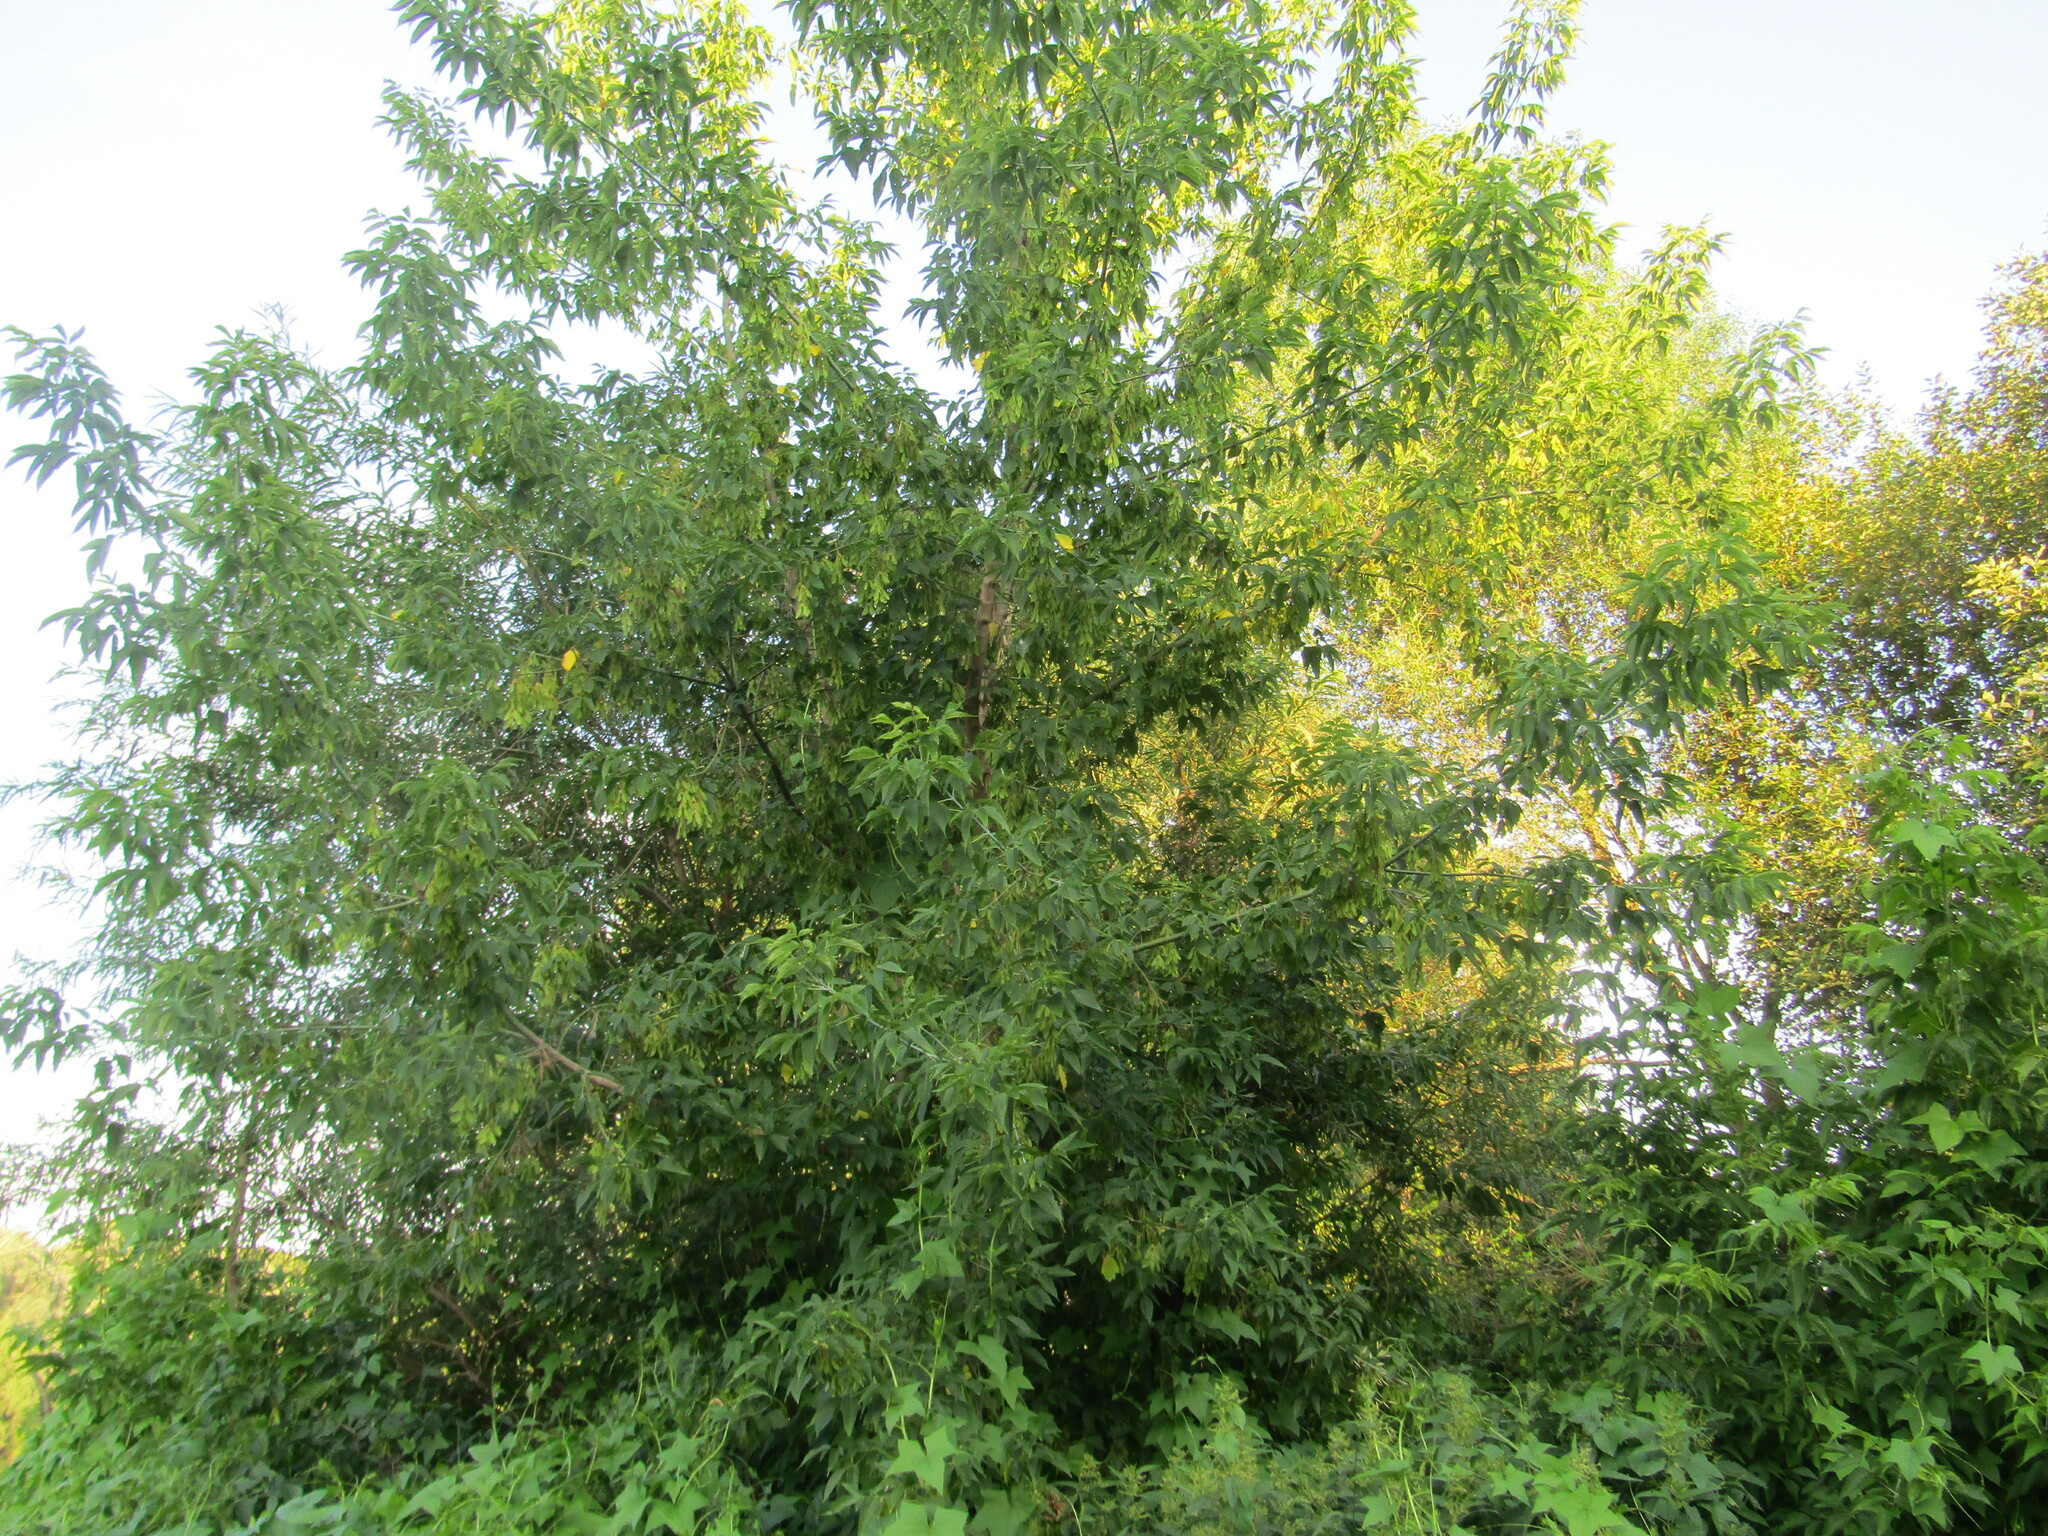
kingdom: Plantae
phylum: Tracheophyta
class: Magnoliopsida
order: Sapindales
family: Sapindaceae
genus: Acer
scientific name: Acer negundo
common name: Ashleaf maple
